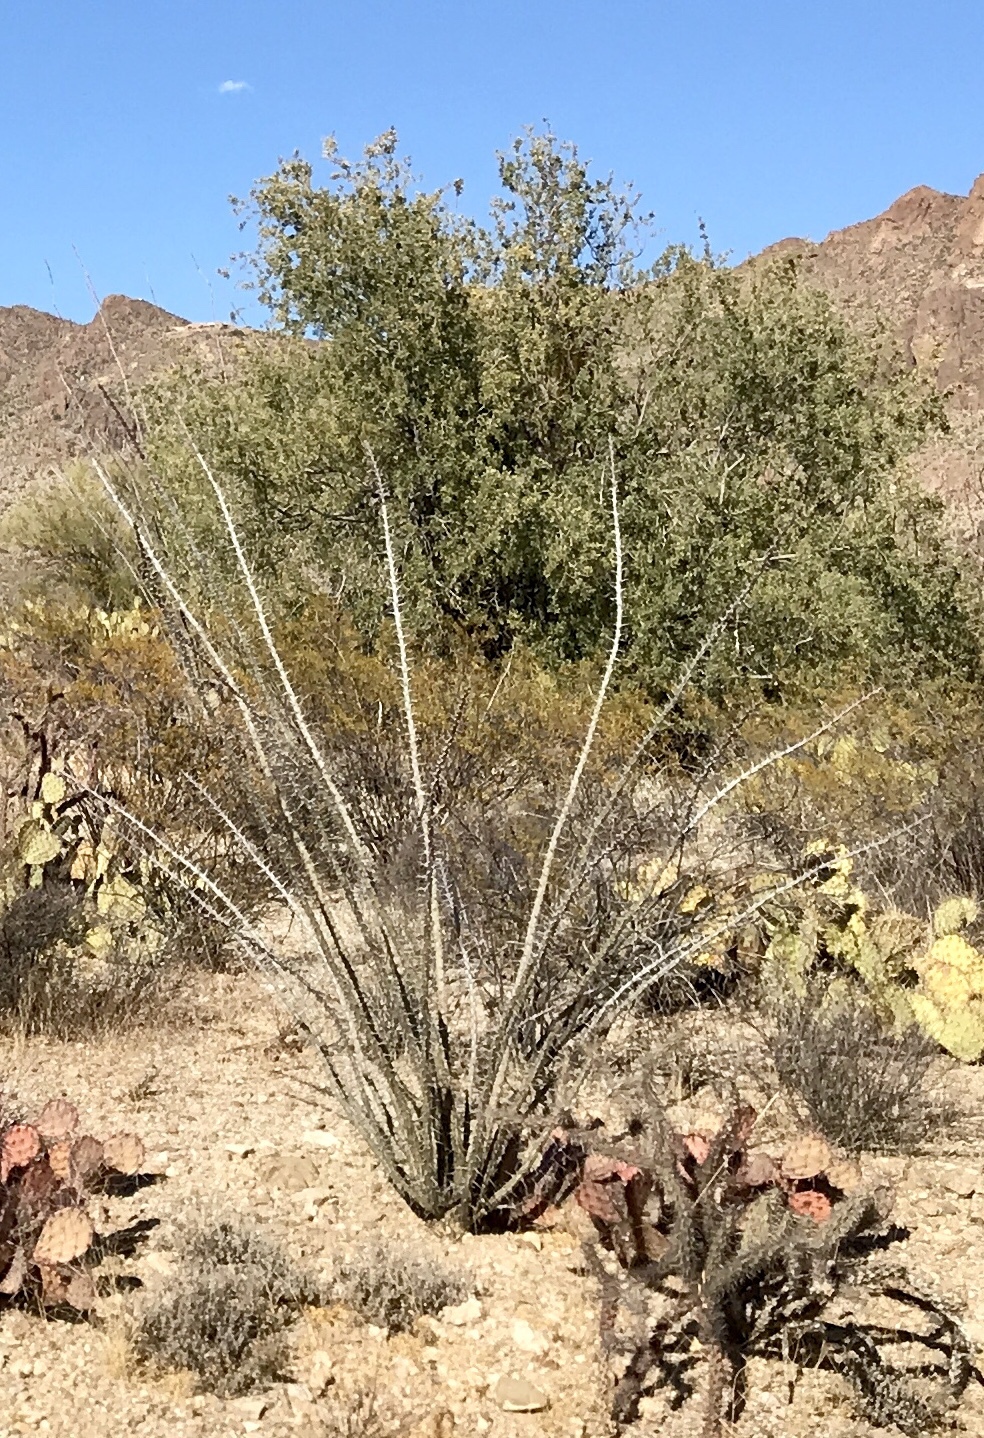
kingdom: Plantae
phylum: Tracheophyta
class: Magnoliopsida
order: Ericales
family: Fouquieriaceae
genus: Fouquieria
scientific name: Fouquieria splendens
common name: Vine-cactus
